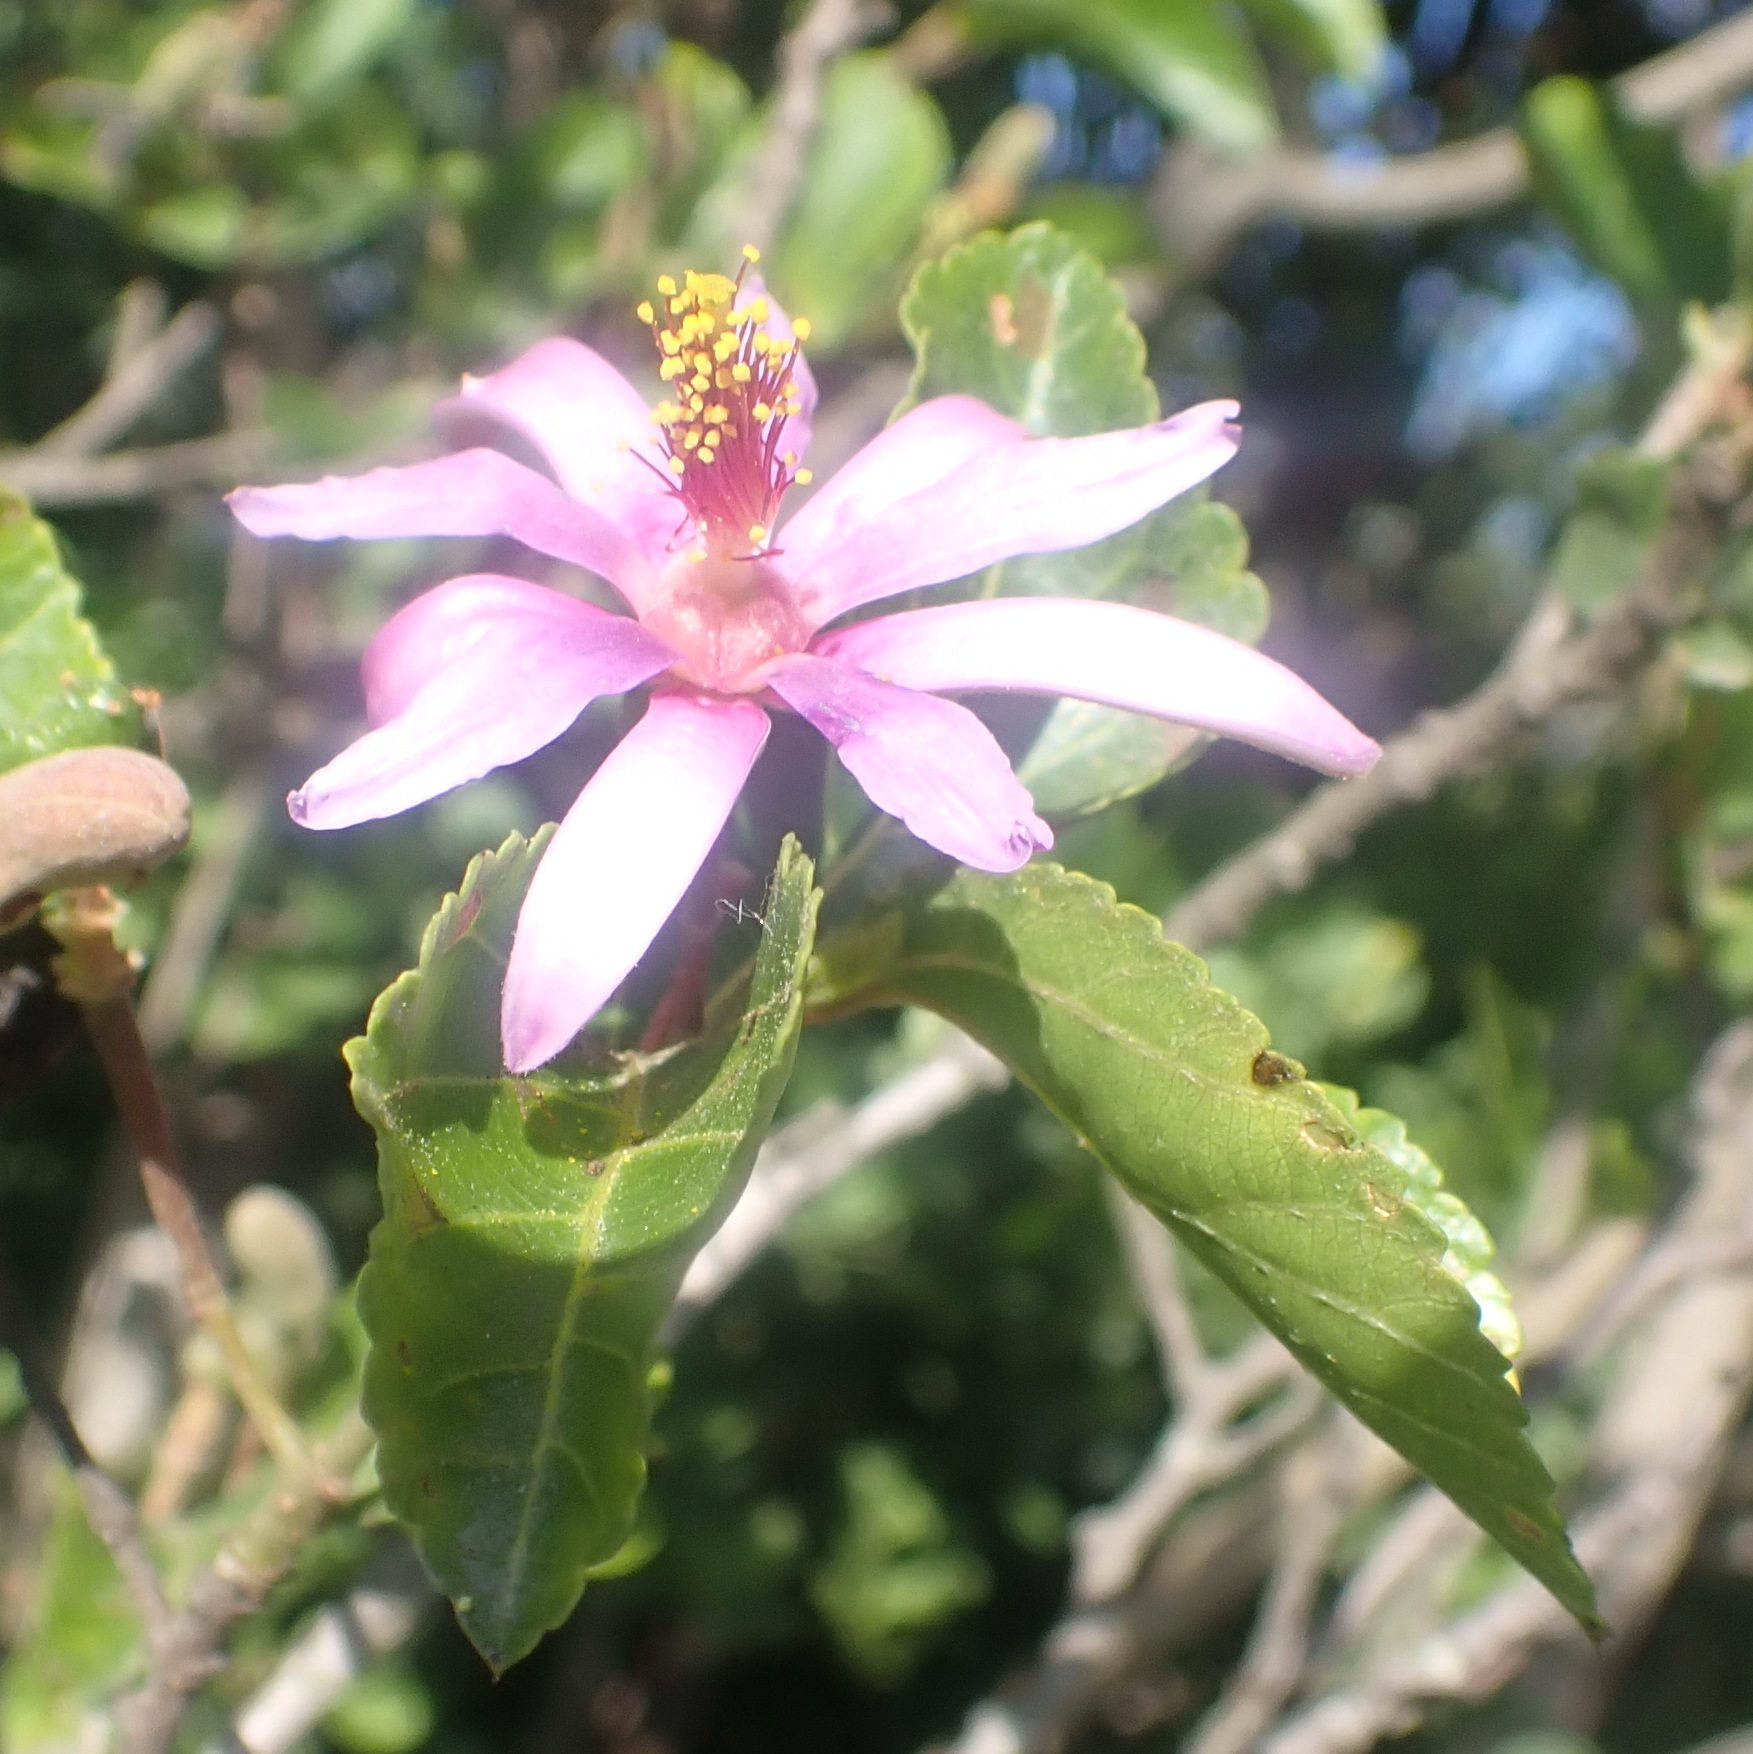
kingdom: Plantae
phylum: Tracheophyta
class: Magnoliopsida
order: Malvales
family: Malvaceae
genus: Grewia
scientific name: Grewia occidentalis
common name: Crossberry
